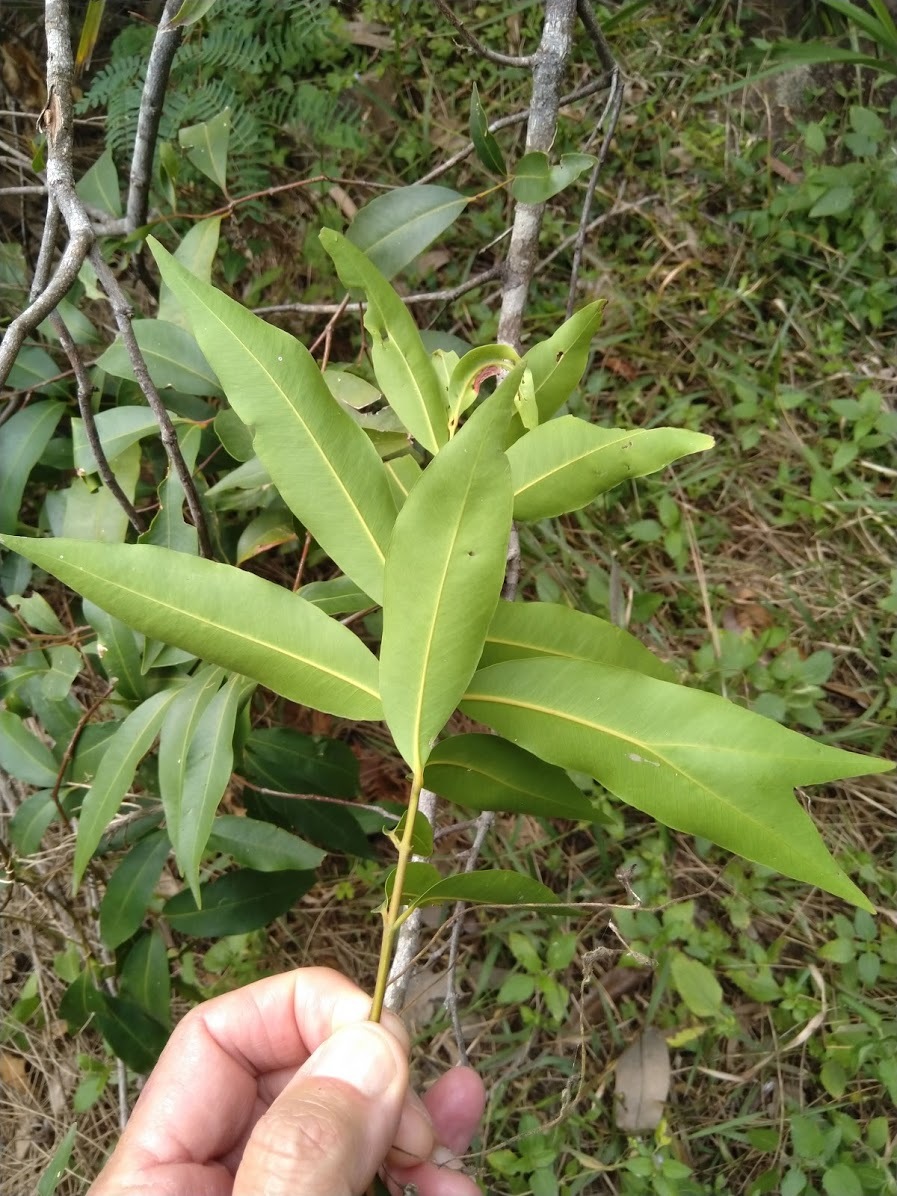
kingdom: Plantae
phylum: Tracheophyta
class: Magnoliopsida
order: Myrtales
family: Myrtaceae
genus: Syzygium
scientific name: Syzygium floribundum
